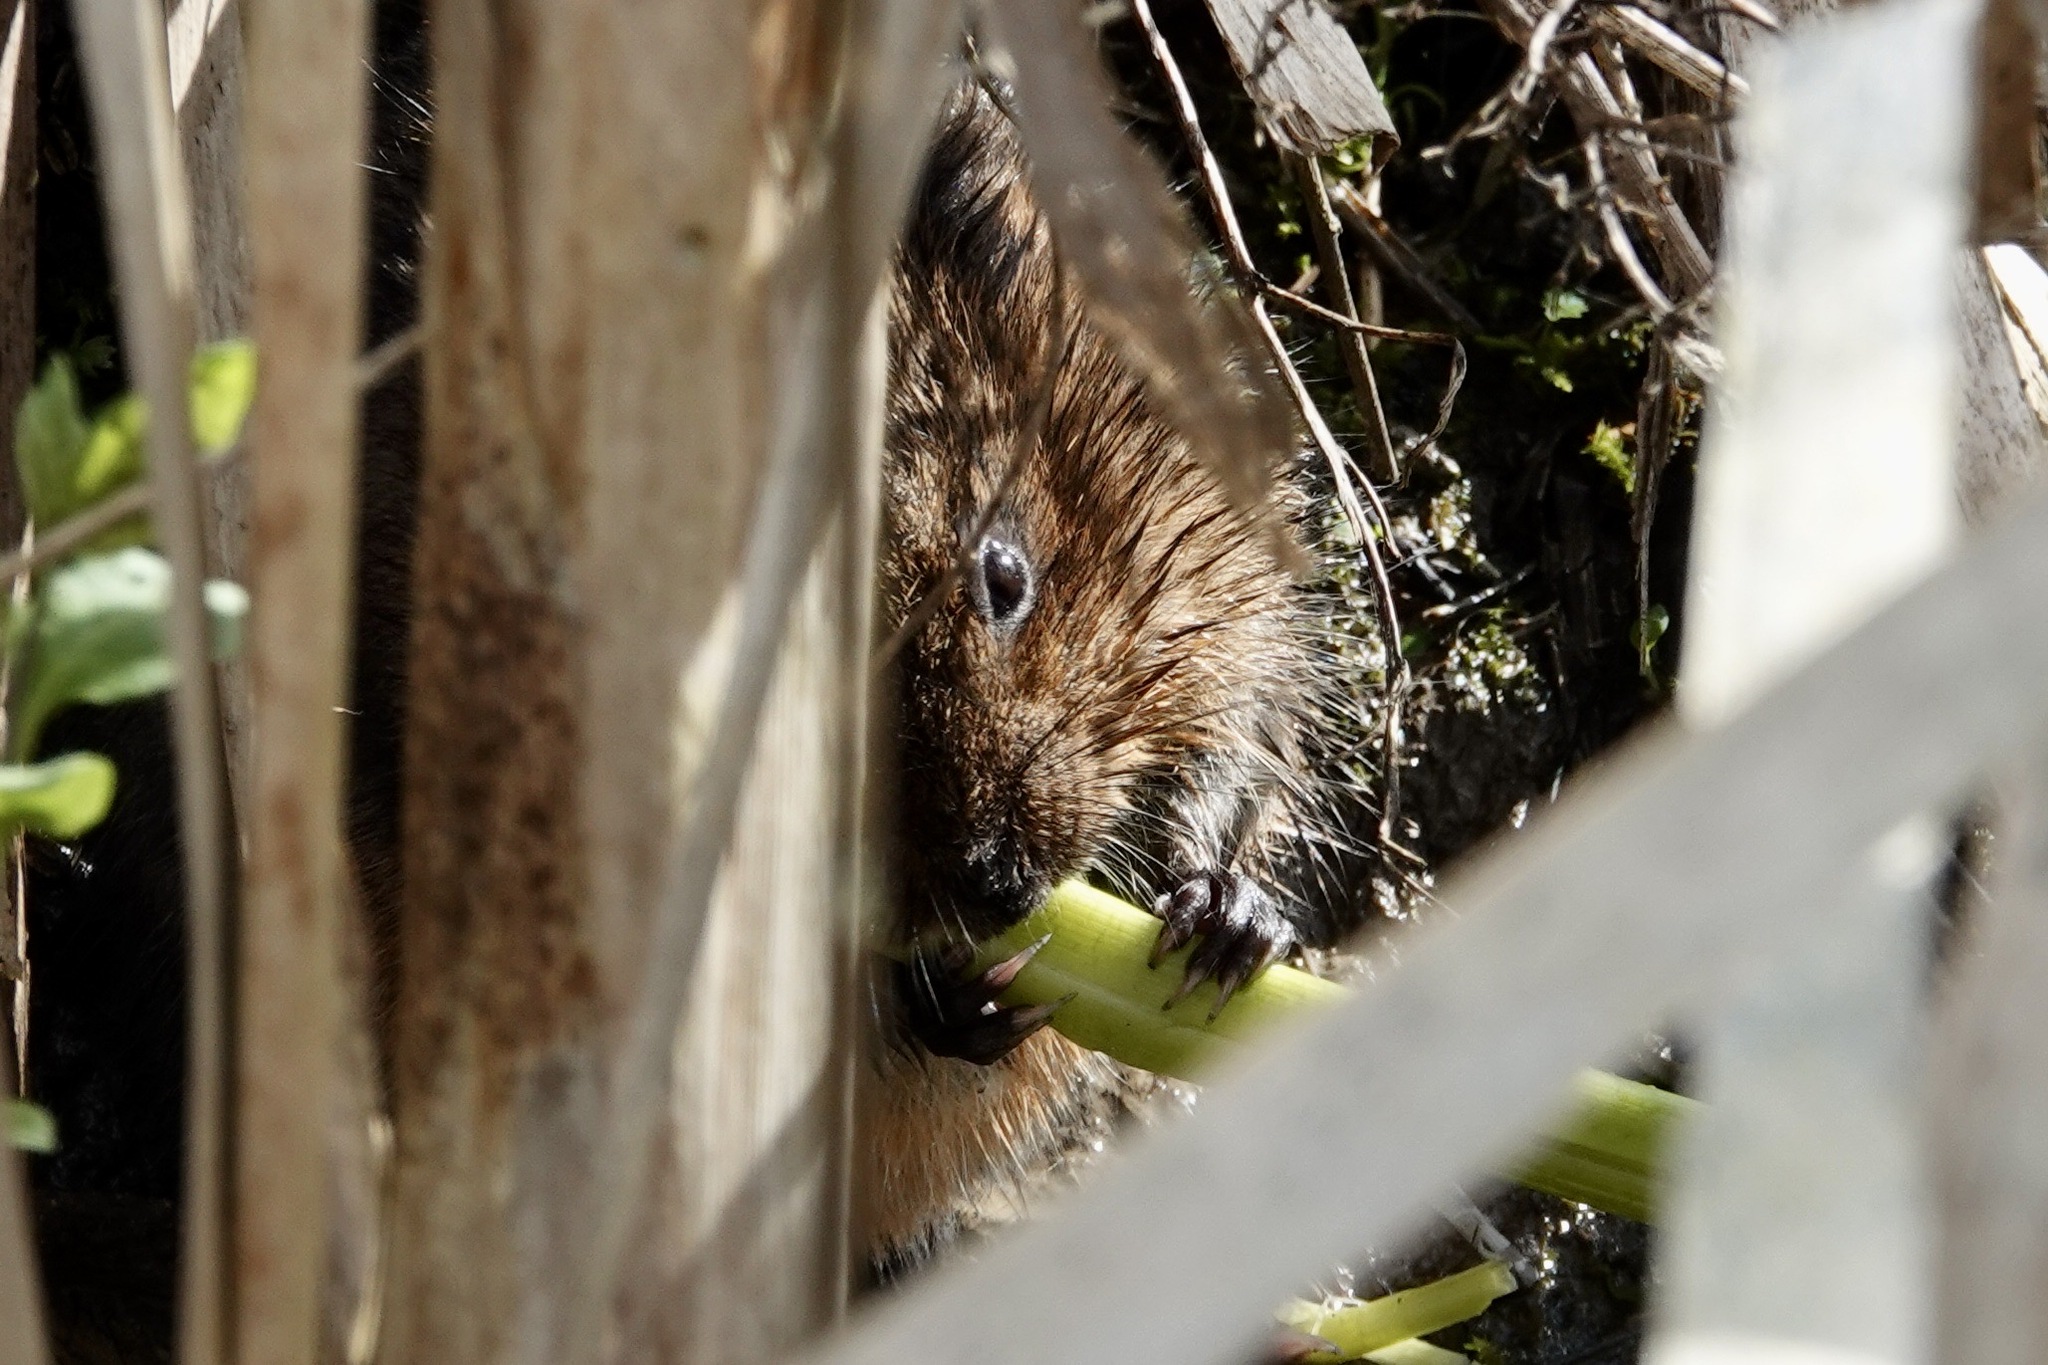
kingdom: Animalia
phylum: Chordata
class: Mammalia
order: Rodentia
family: Cricetidae
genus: Arvicola
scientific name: Arvicola amphibius
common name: European water vole
